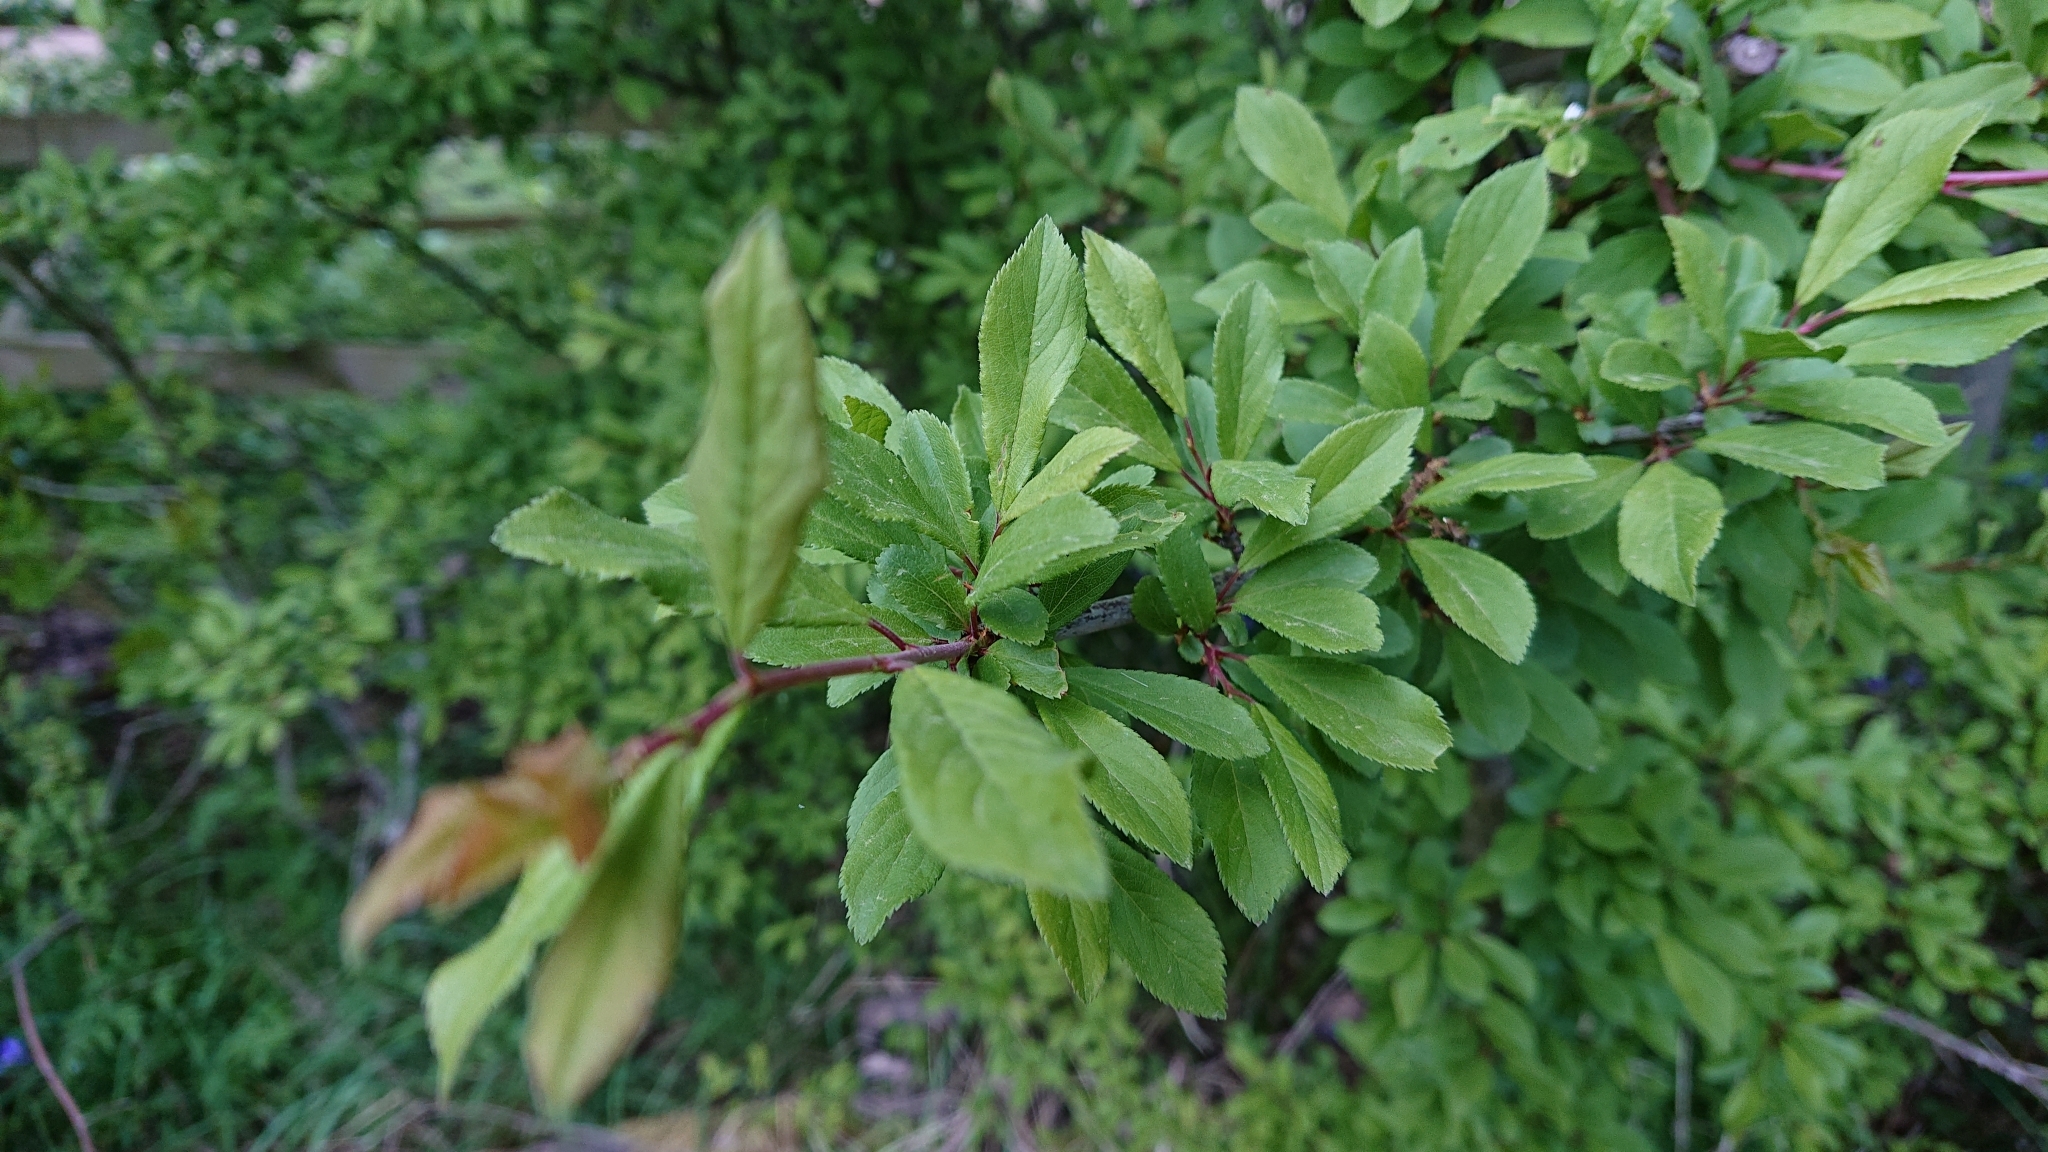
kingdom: Plantae
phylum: Tracheophyta
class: Magnoliopsida
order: Rosales
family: Rosaceae
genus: Prunus
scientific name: Prunus spinosa
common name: Blackthorn
